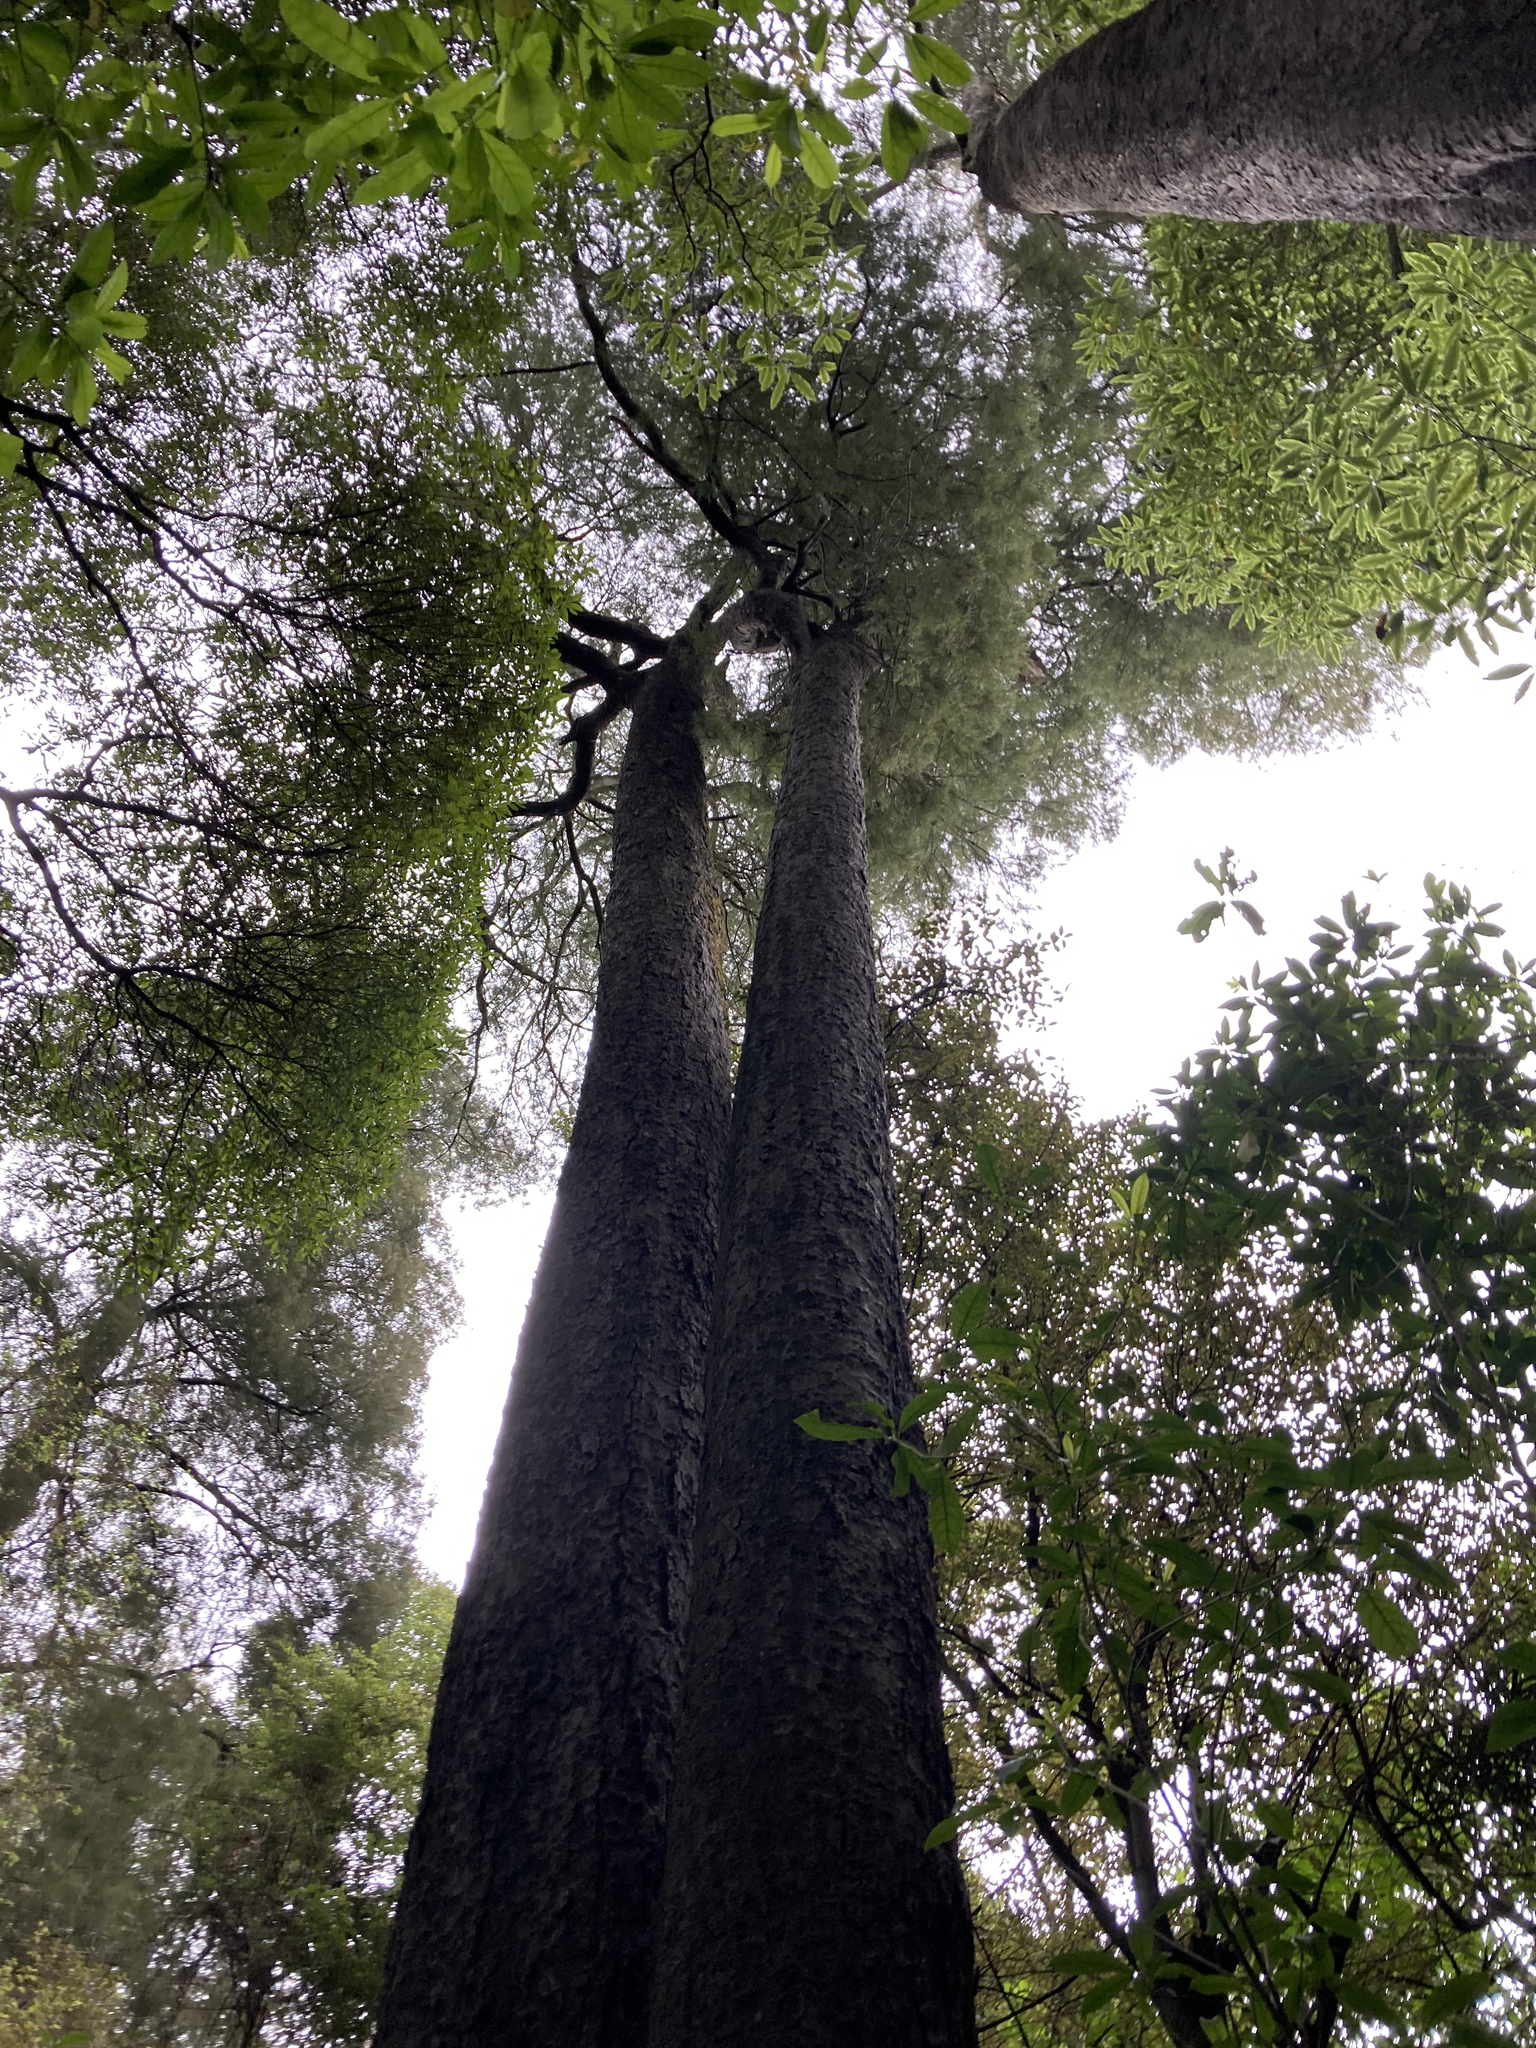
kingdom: Plantae
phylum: Tracheophyta
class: Pinopsida
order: Pinales
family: Podocarpaceae
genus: Dacrycarpus
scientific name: Dacrycarpus dacrydioides
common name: White pine
